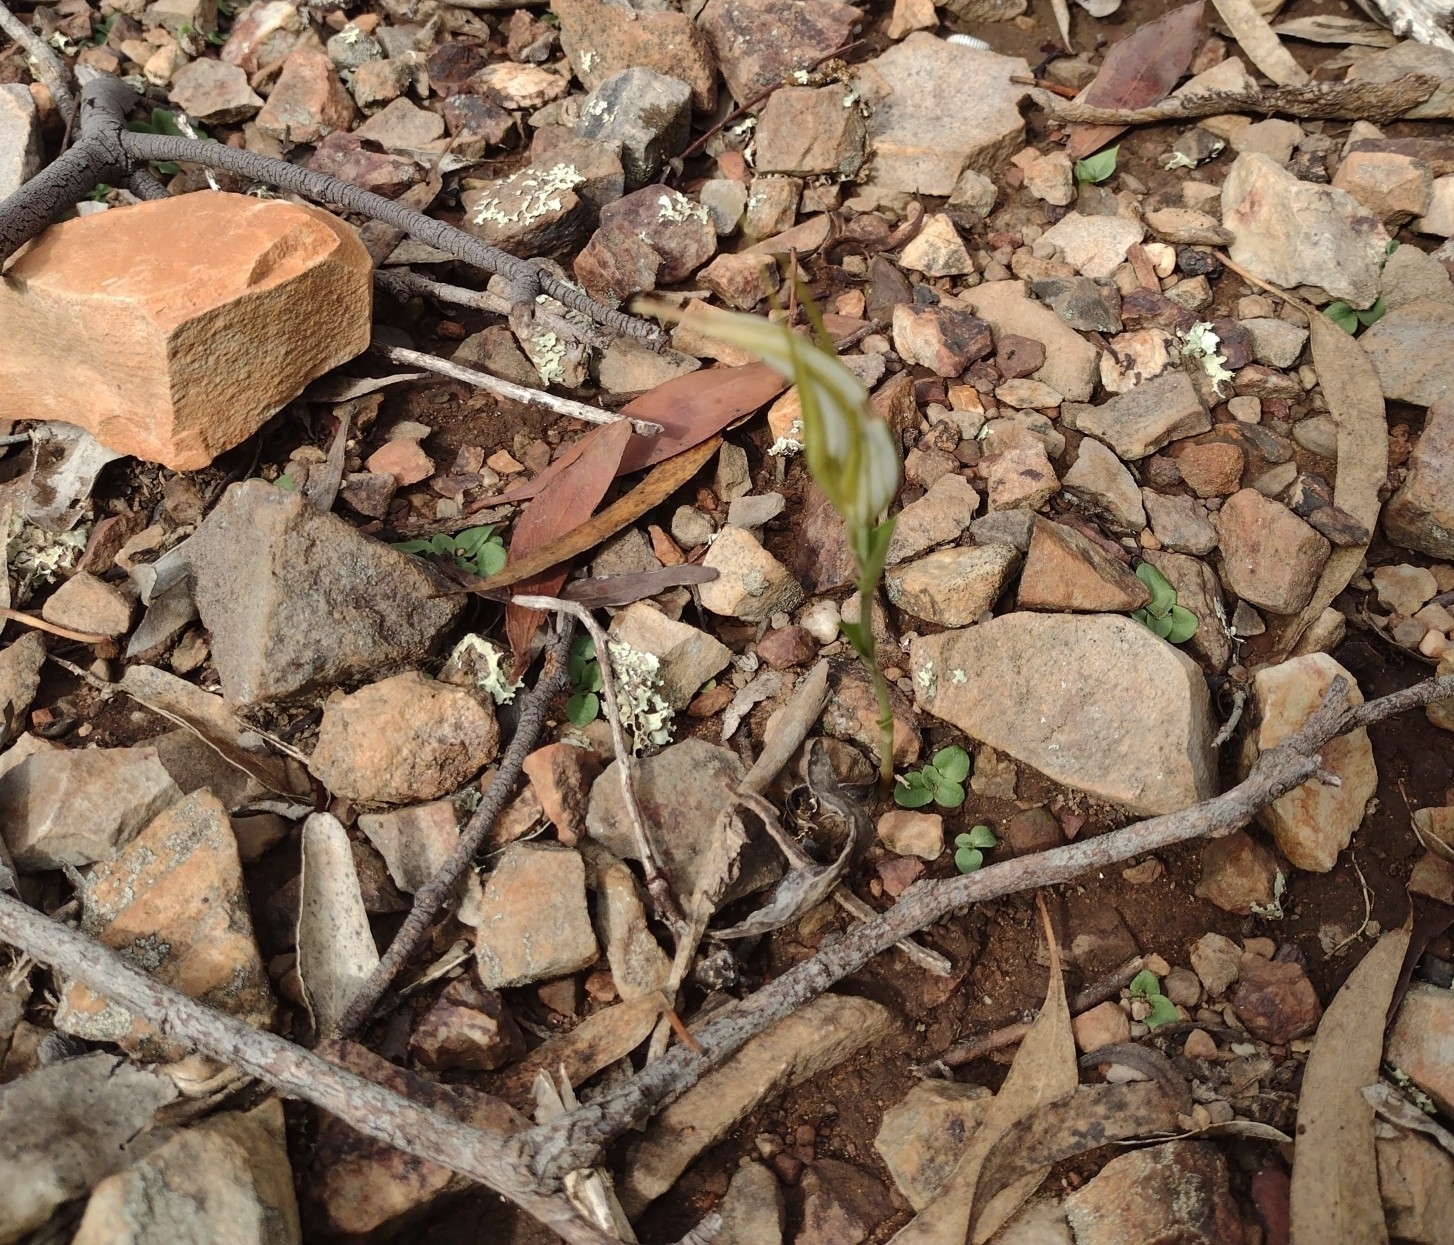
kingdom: Plantae
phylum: Tracheophyta
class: Liliopsida
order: Asparagales
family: Orchidaceae
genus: Pterostylis
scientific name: Pterostylis ampliata
